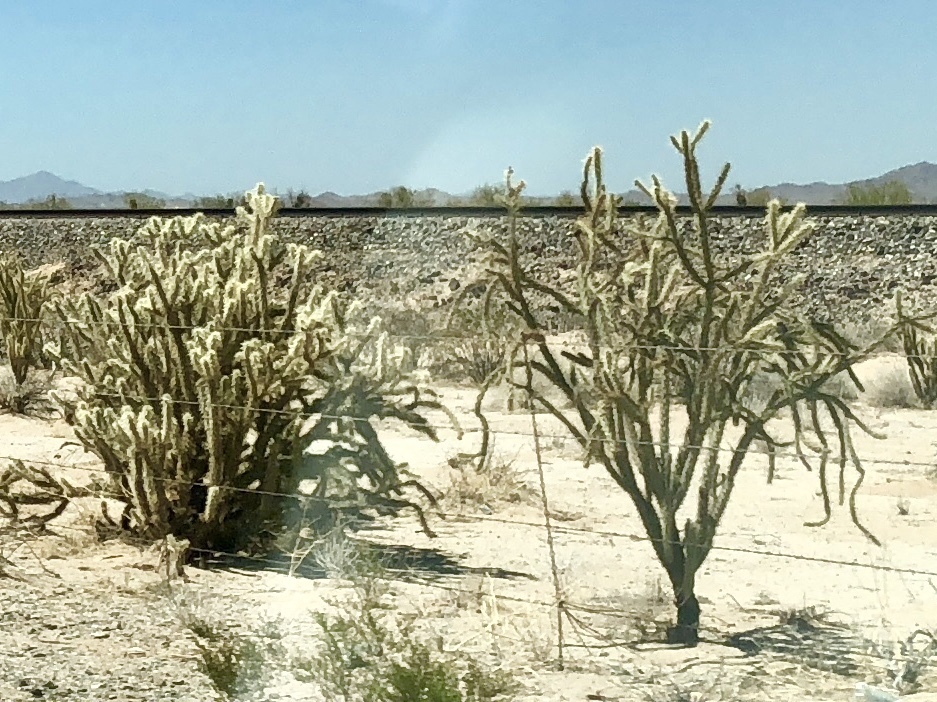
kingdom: Plantae
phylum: Tracheophyta
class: Magnoliopsida
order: Caryophyllales
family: Cactaceae
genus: Cylindropuntia
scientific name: Cylindropuntia acanthocarpa
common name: Buckhorn cholla
